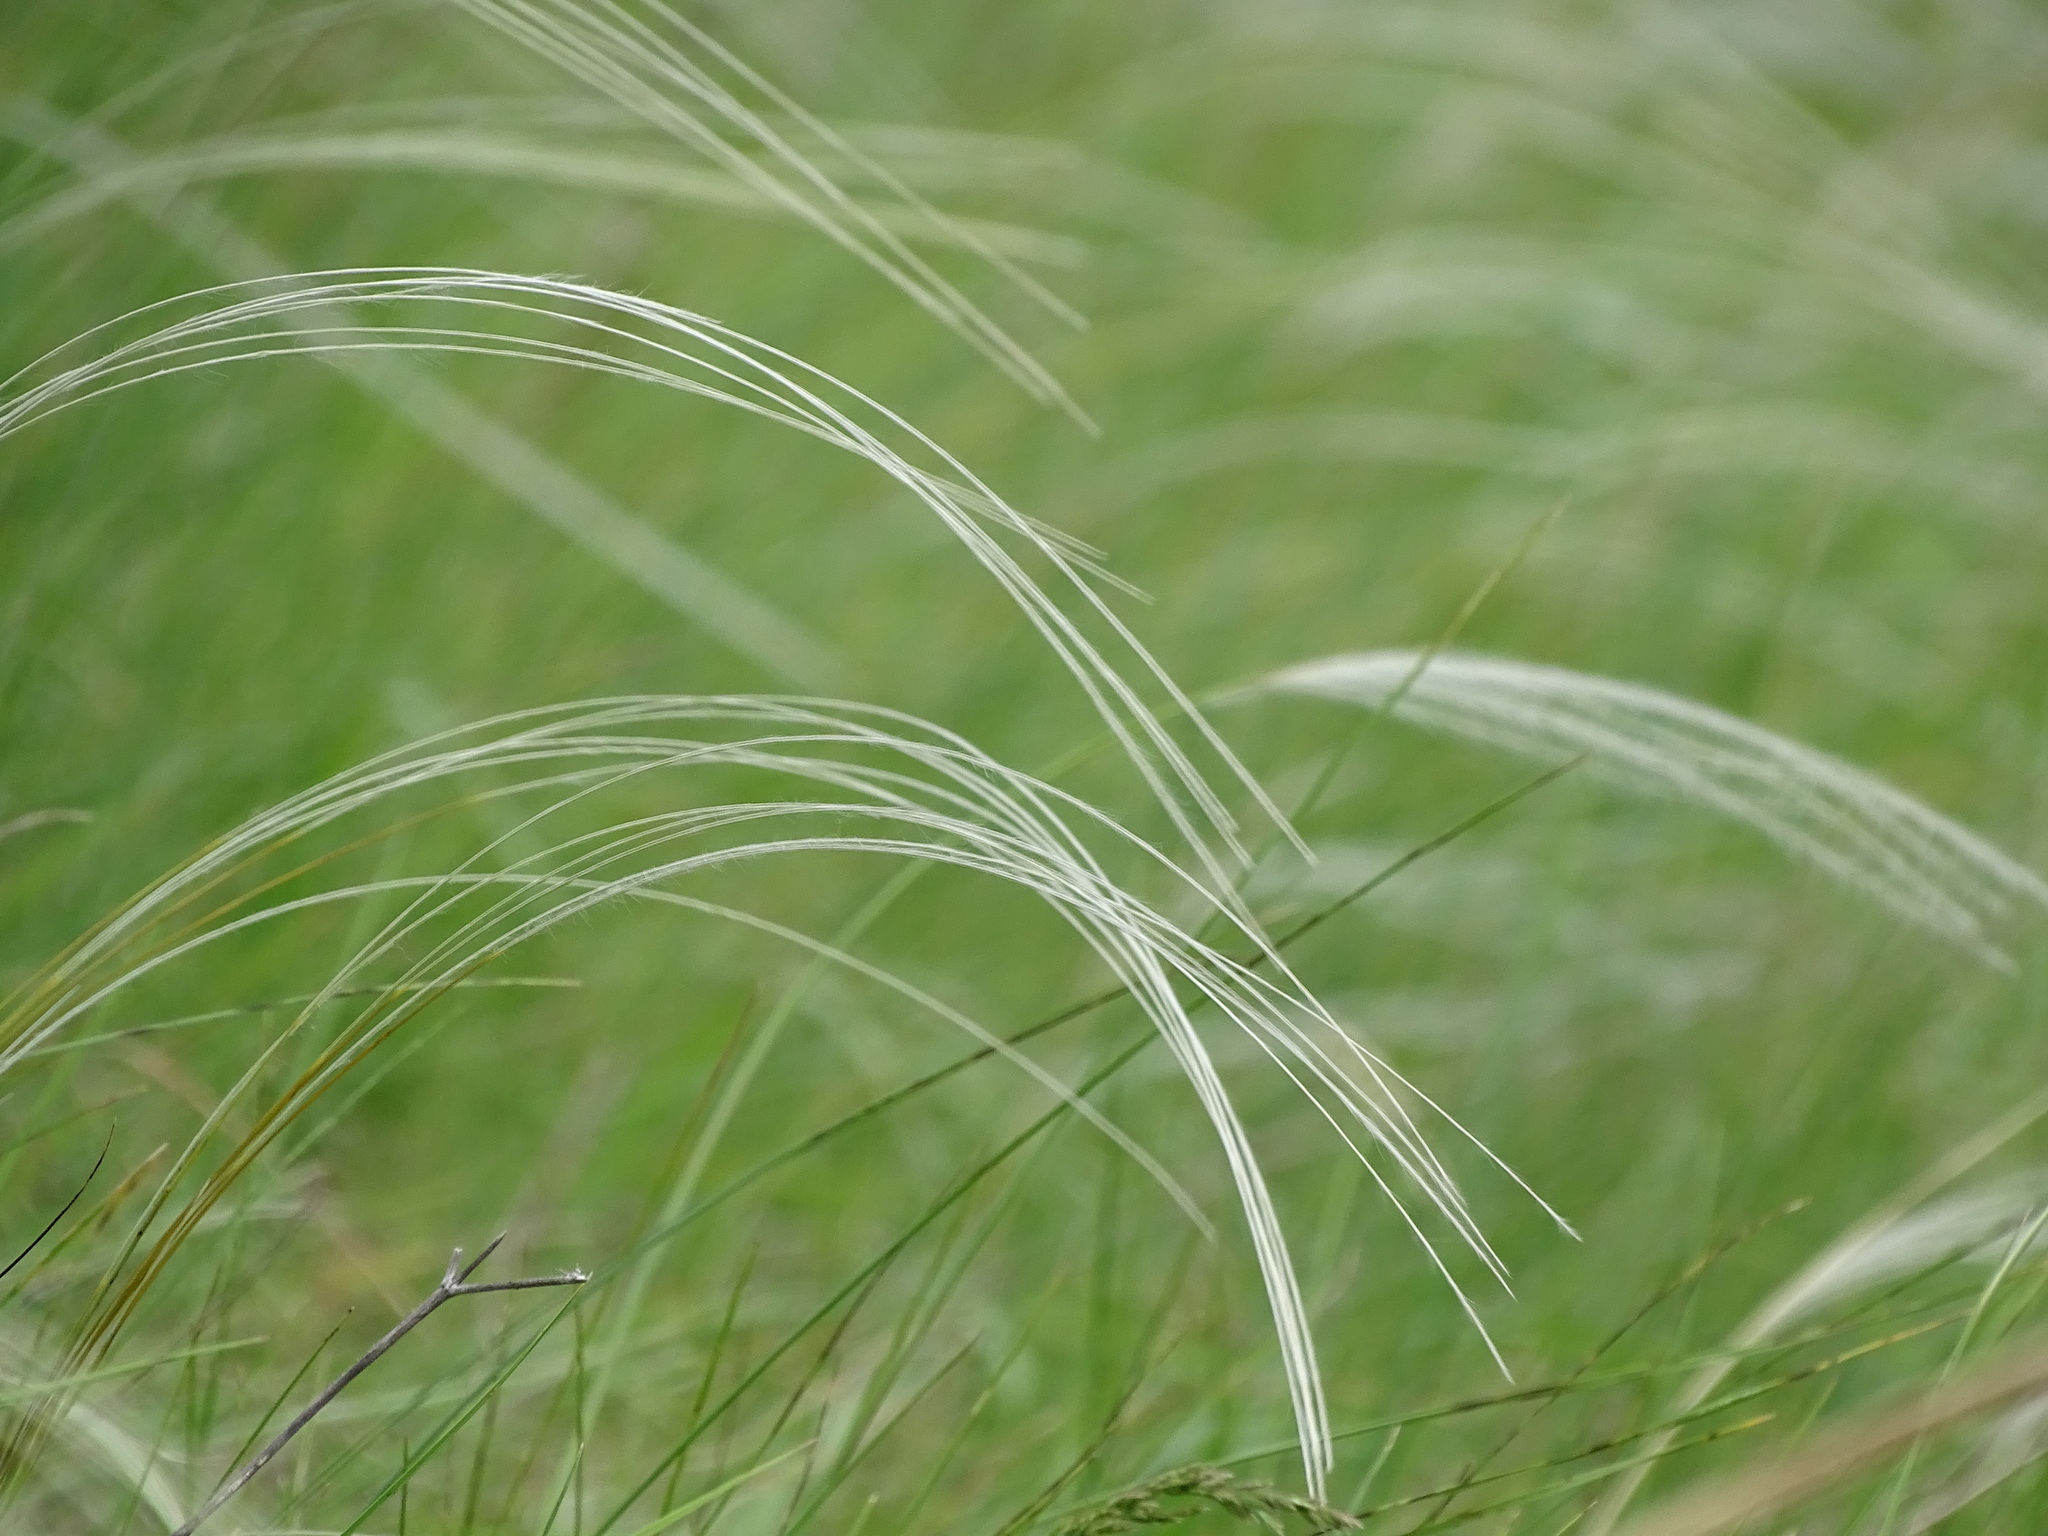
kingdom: Plantae
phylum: Tracheophyta
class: Liliopsida
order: Poales
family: Poaceae
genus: Stipa
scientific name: Stipa pennata
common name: European feather grass
